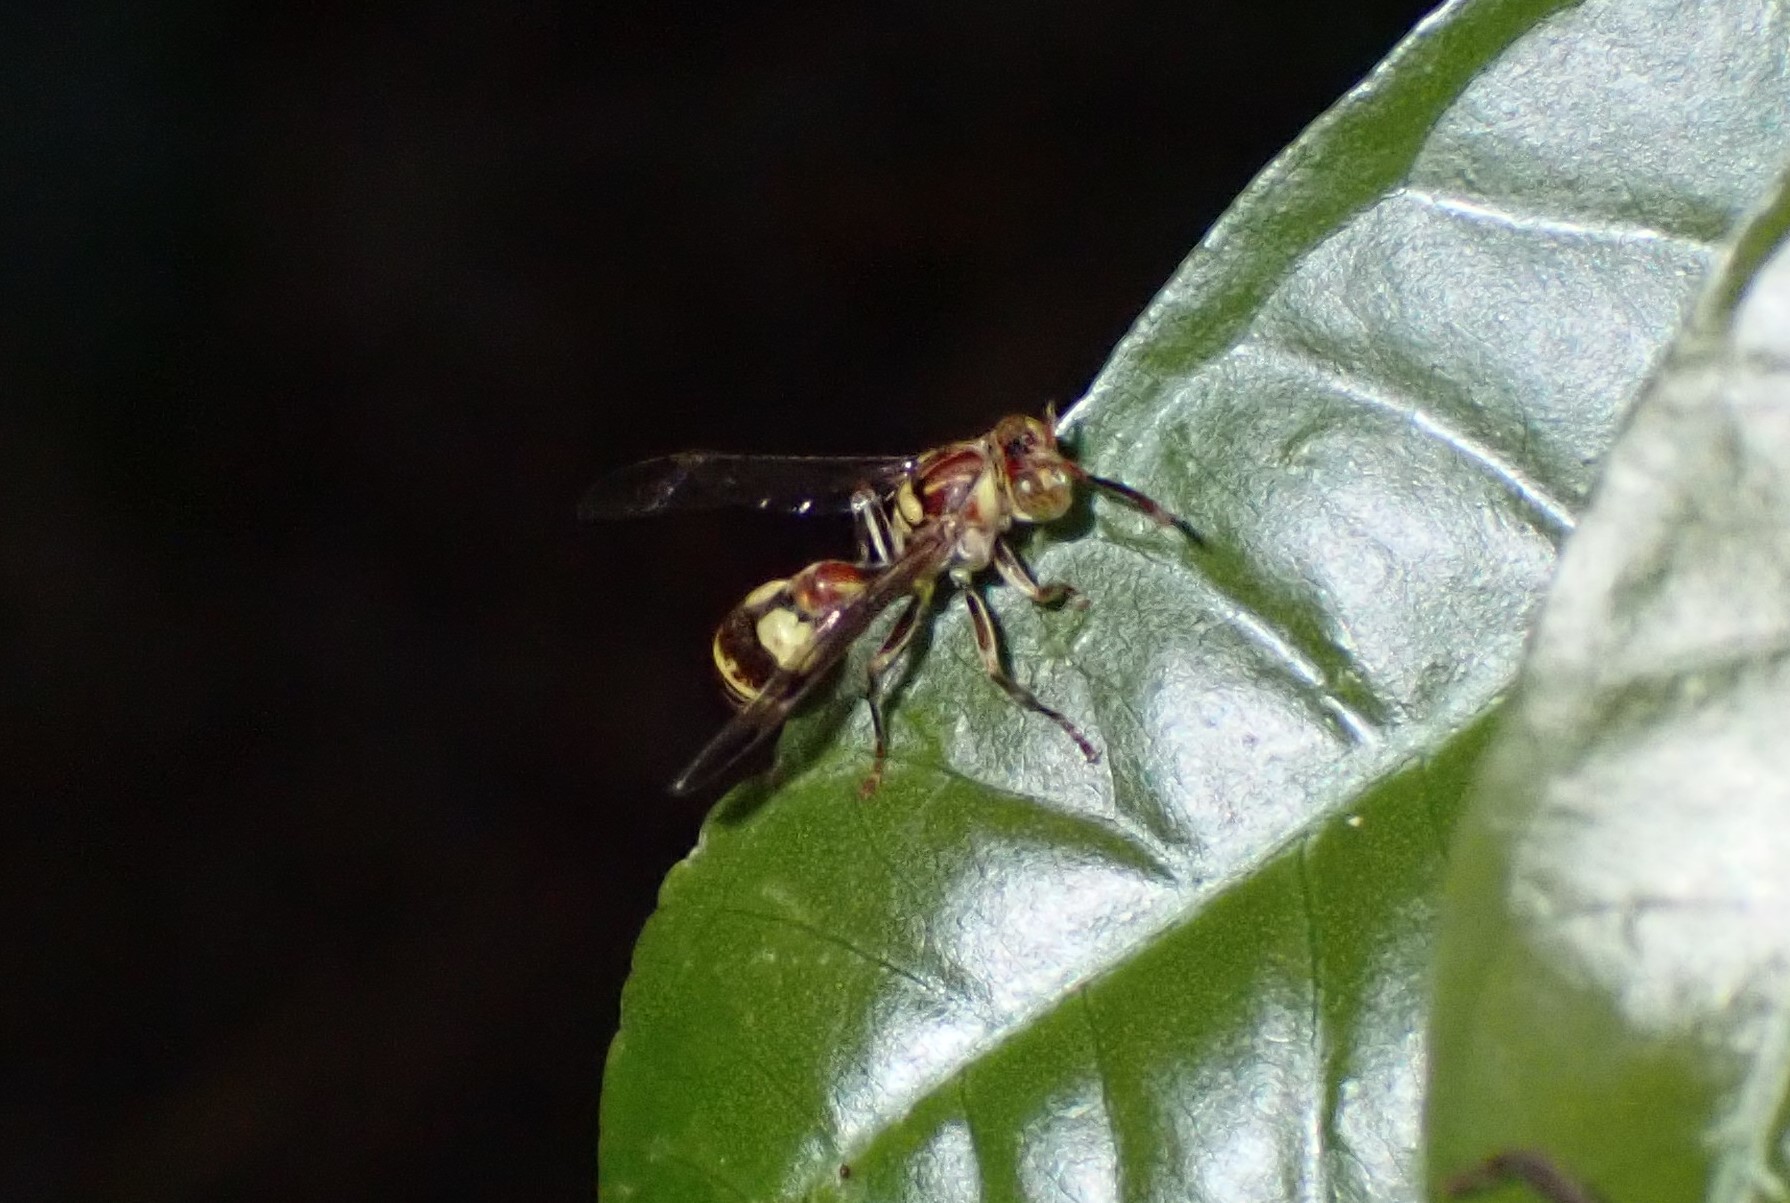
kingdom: Animalia
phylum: Arthropoda
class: Insecta
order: Hymenoptera
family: Vespidae
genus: Ropalidia
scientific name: Ropalidia stigma
